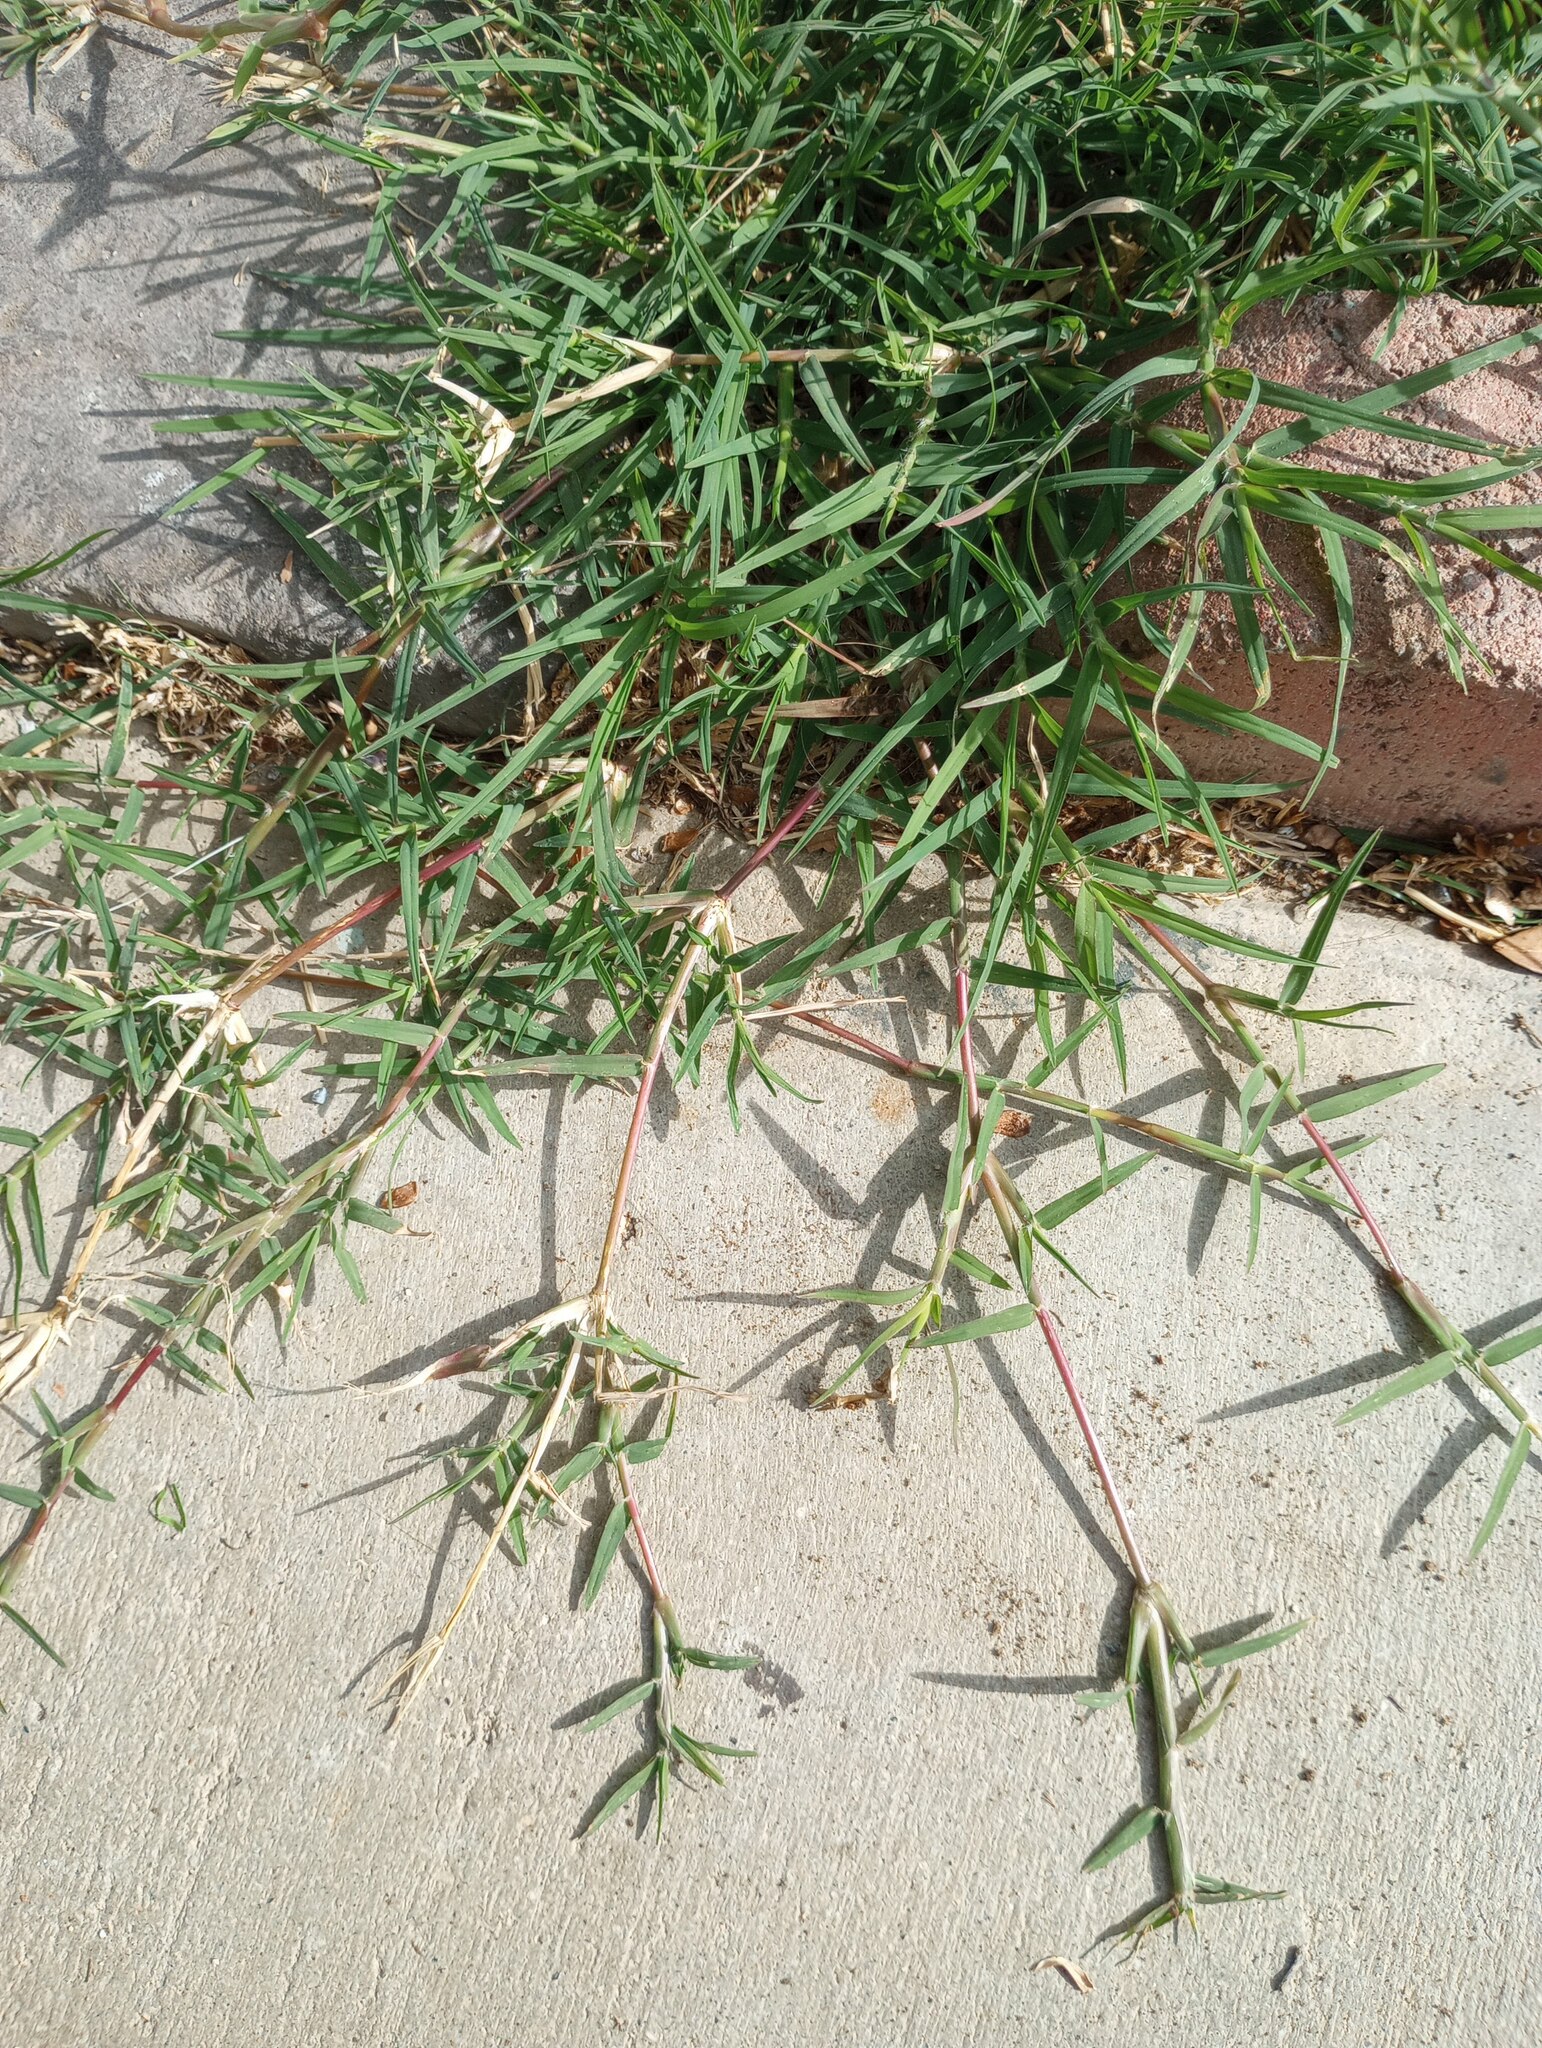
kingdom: Plantae
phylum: Tracheophyta
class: Liliopsida
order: Poales
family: Poaceae
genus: Cynodon
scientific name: Cynodon dactylon
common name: Bermuda grass
